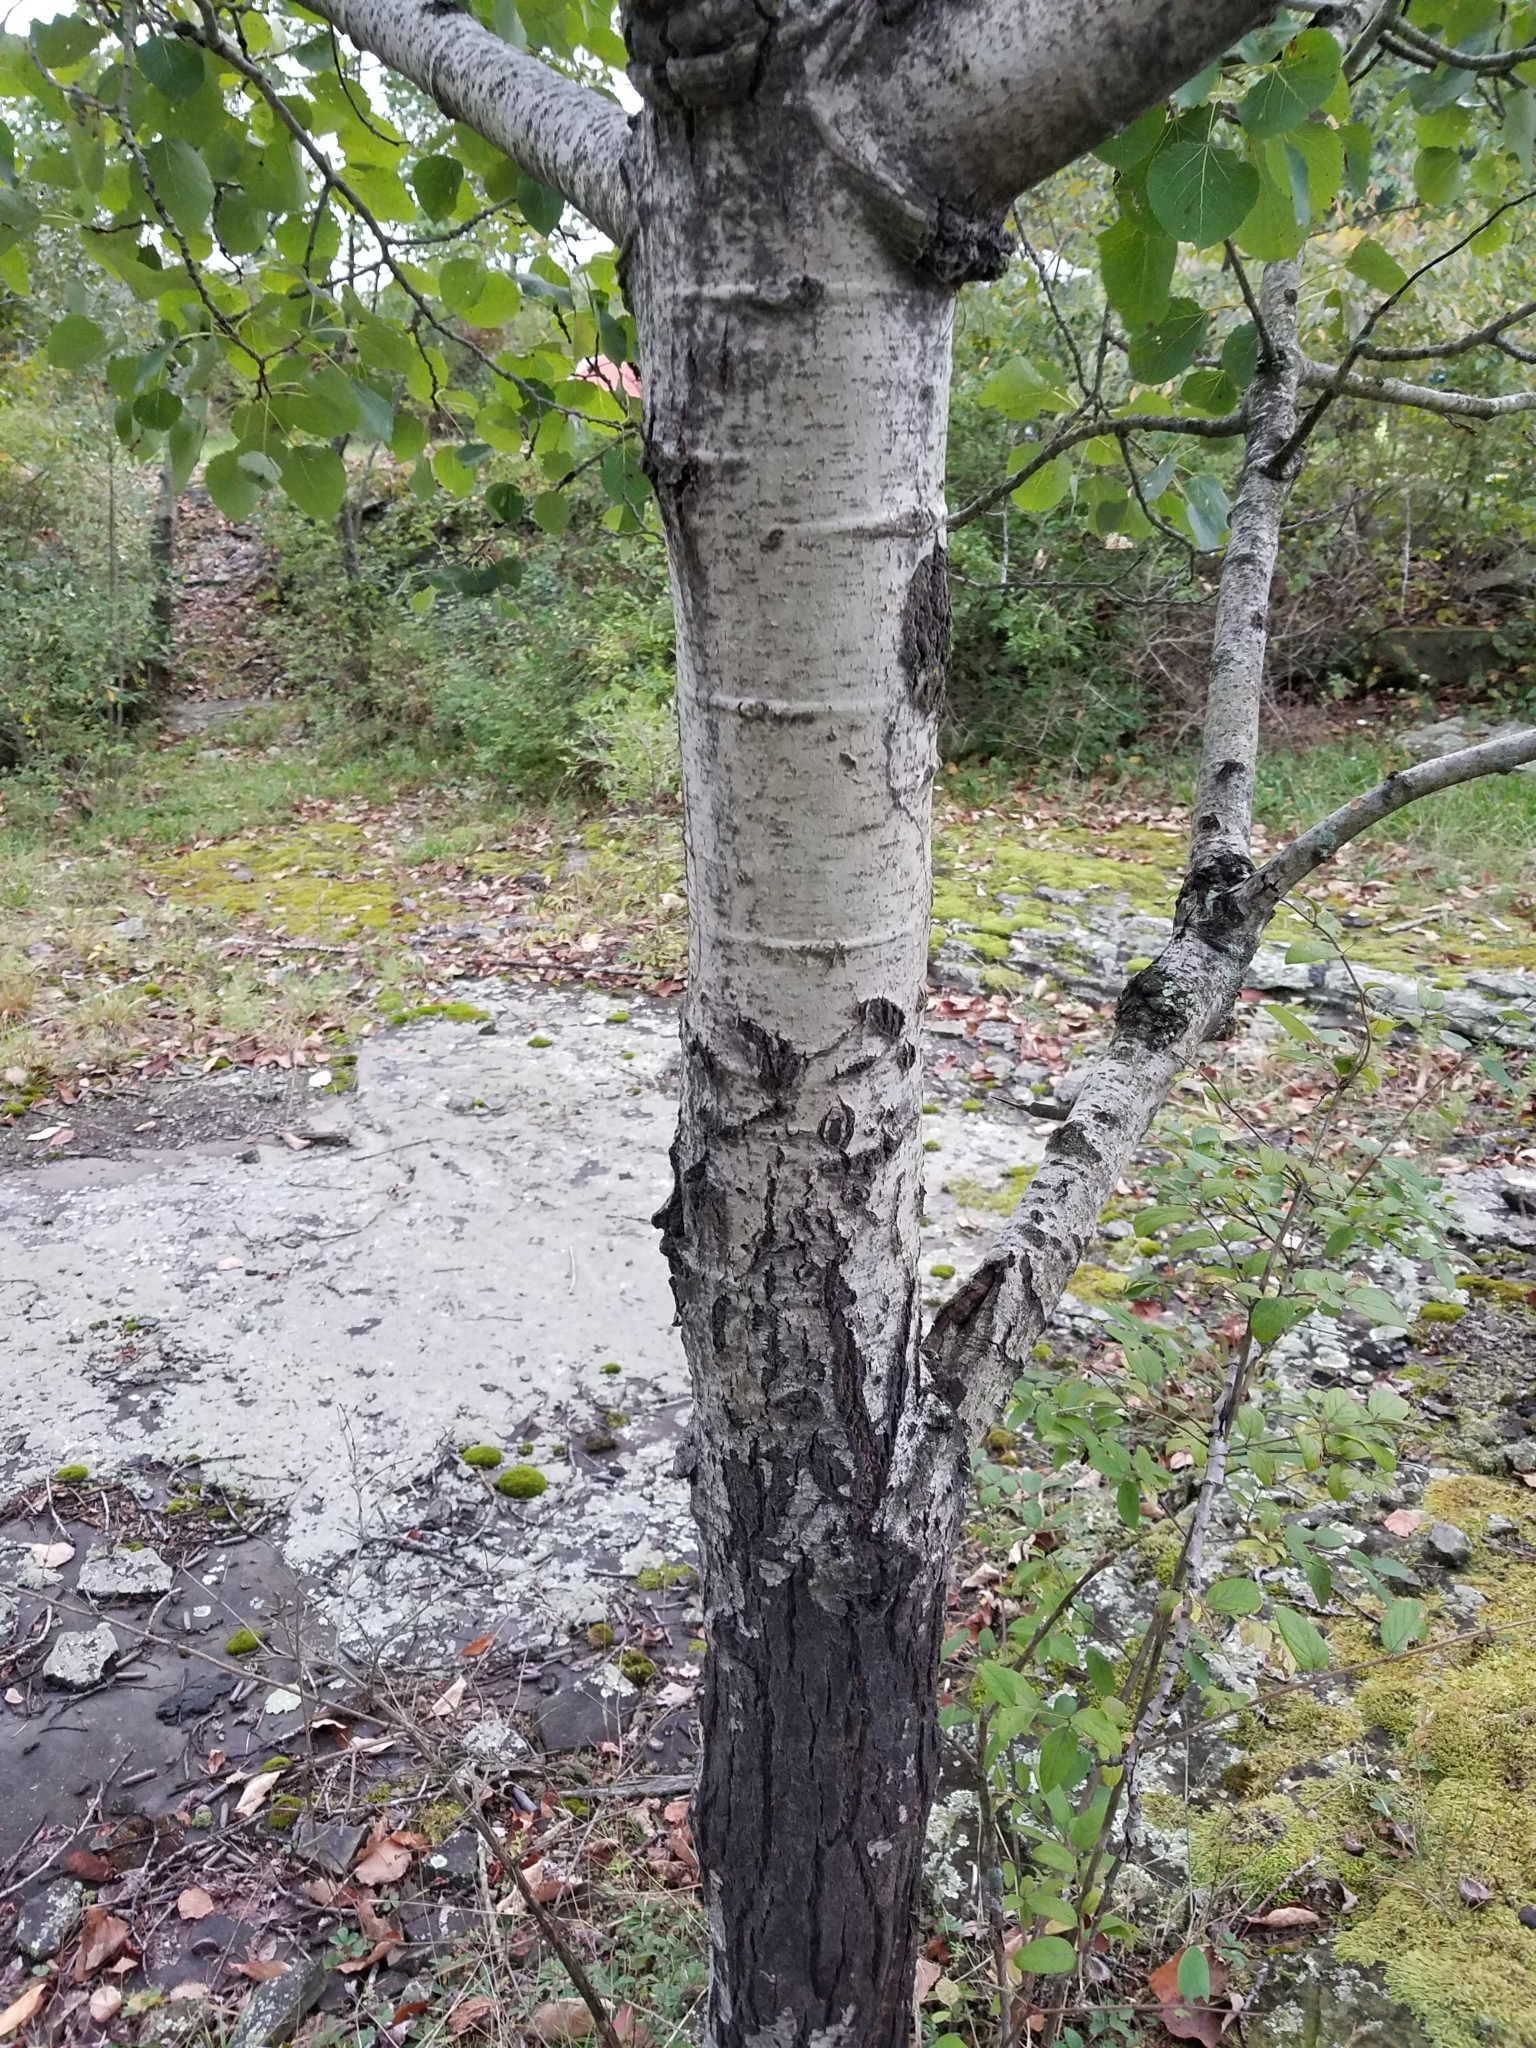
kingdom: Plantae
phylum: Tracheophyta
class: Magnoliopsida
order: Malpighiales
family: Salicaceae
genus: Populus
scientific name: Populus tremuloides
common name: Quaking aspen
